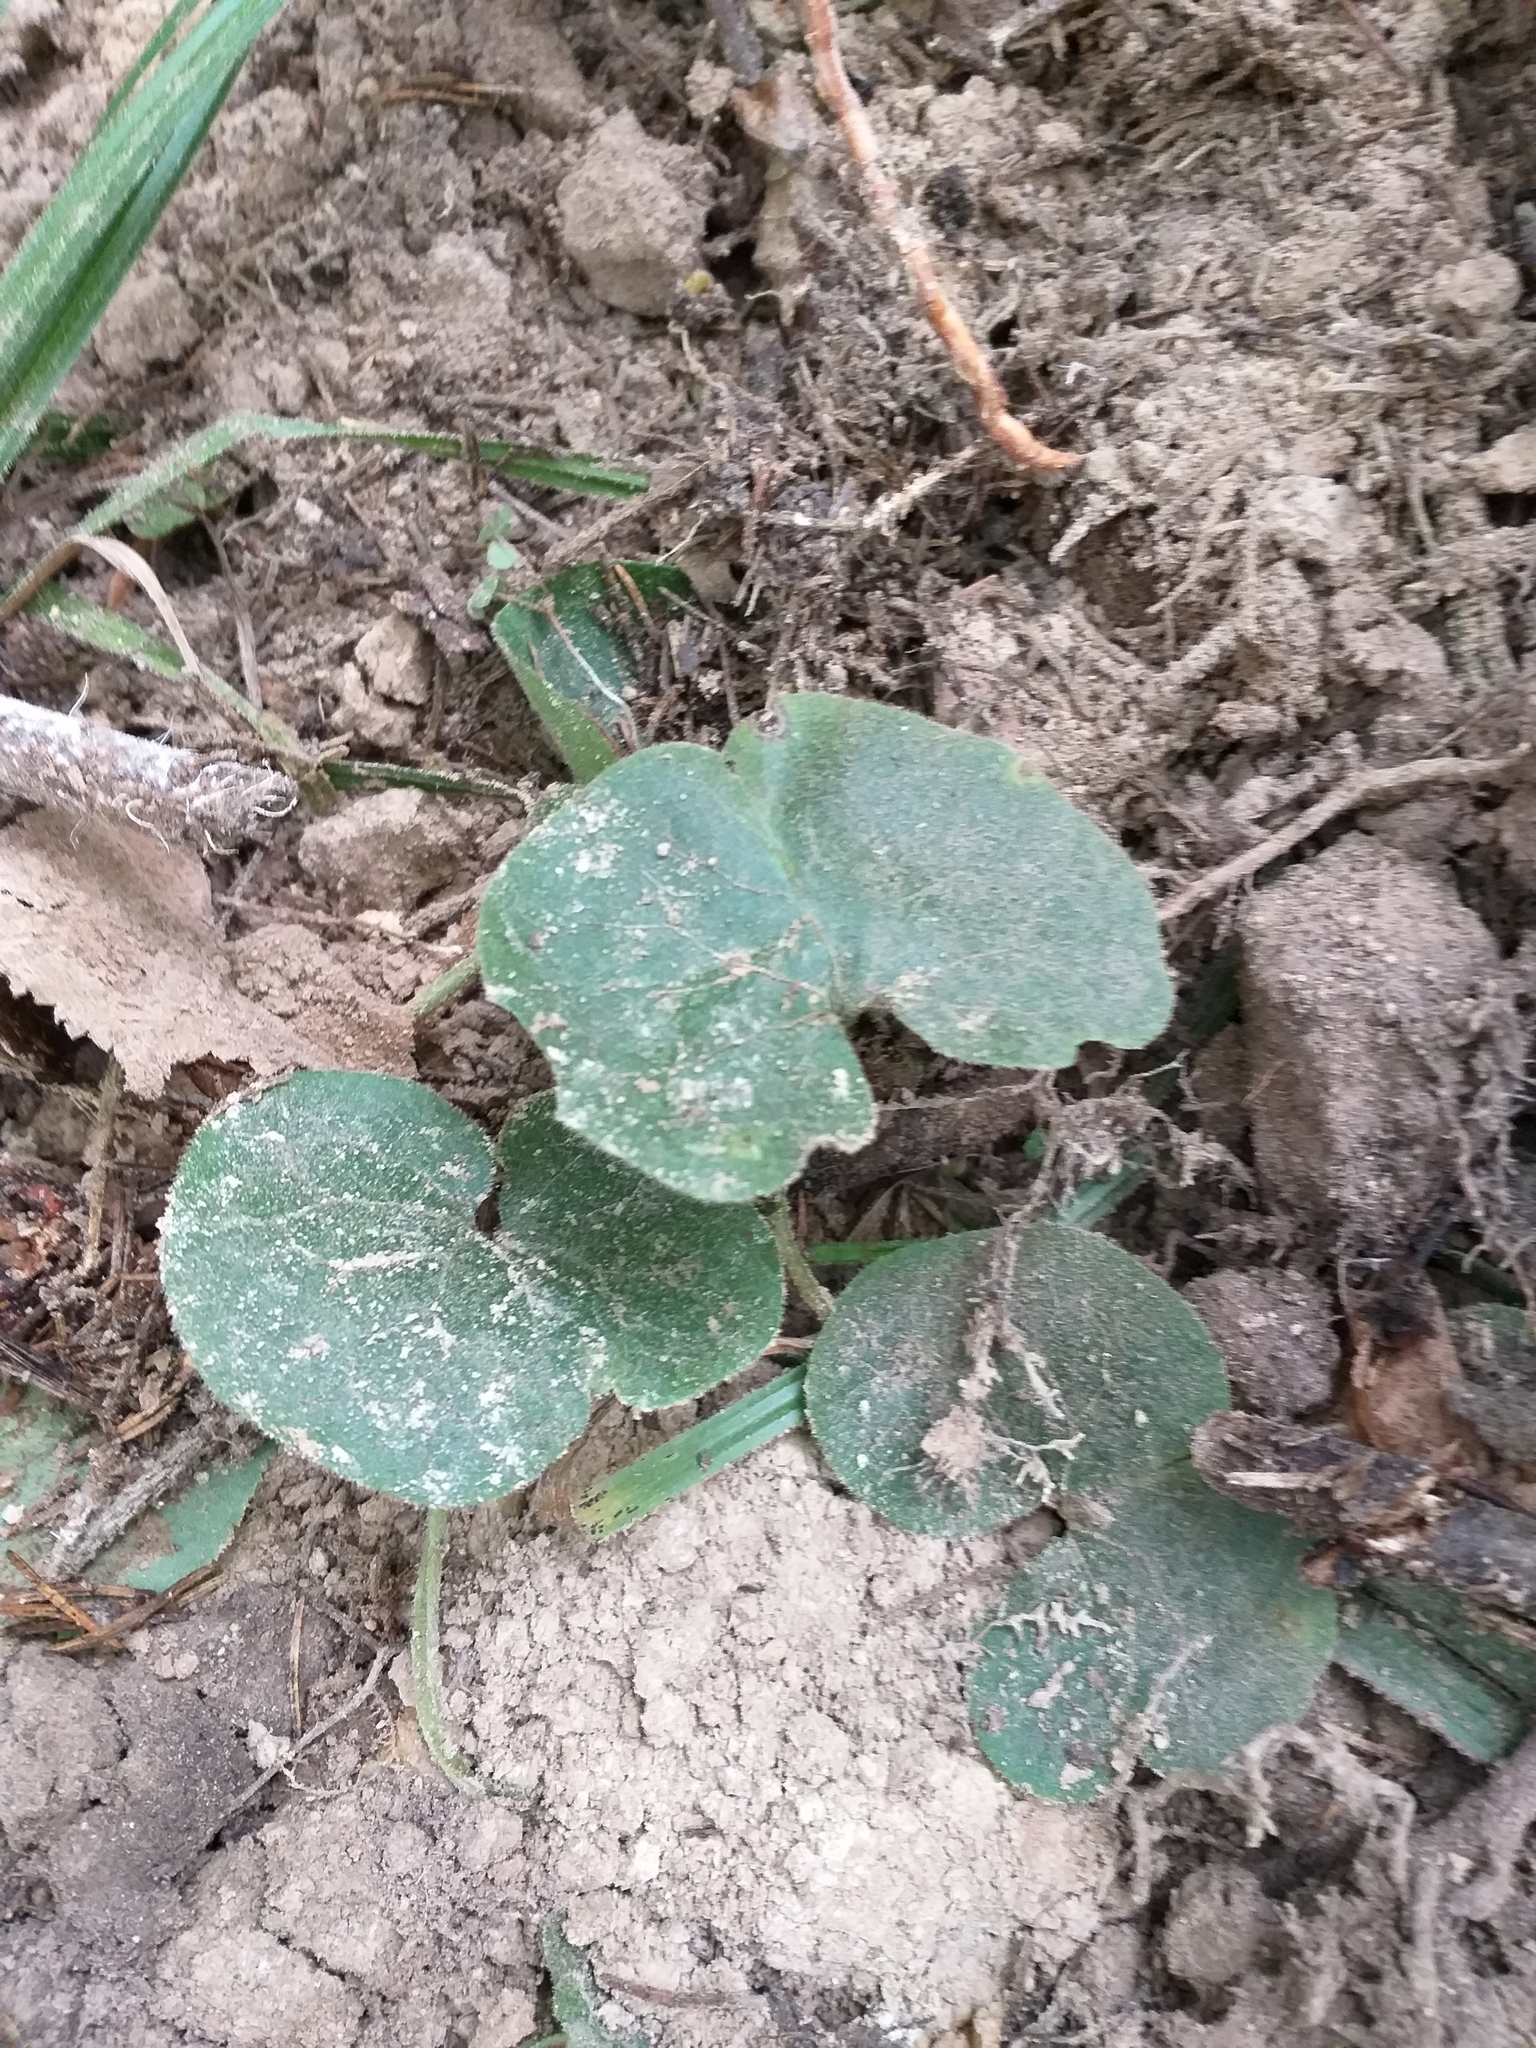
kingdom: Plantae
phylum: Tracheophyta
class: Magnoliopsida
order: Piperales
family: Aristolochiaceae
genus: Asarum
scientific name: Asarum europaeum
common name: Asarabacca
